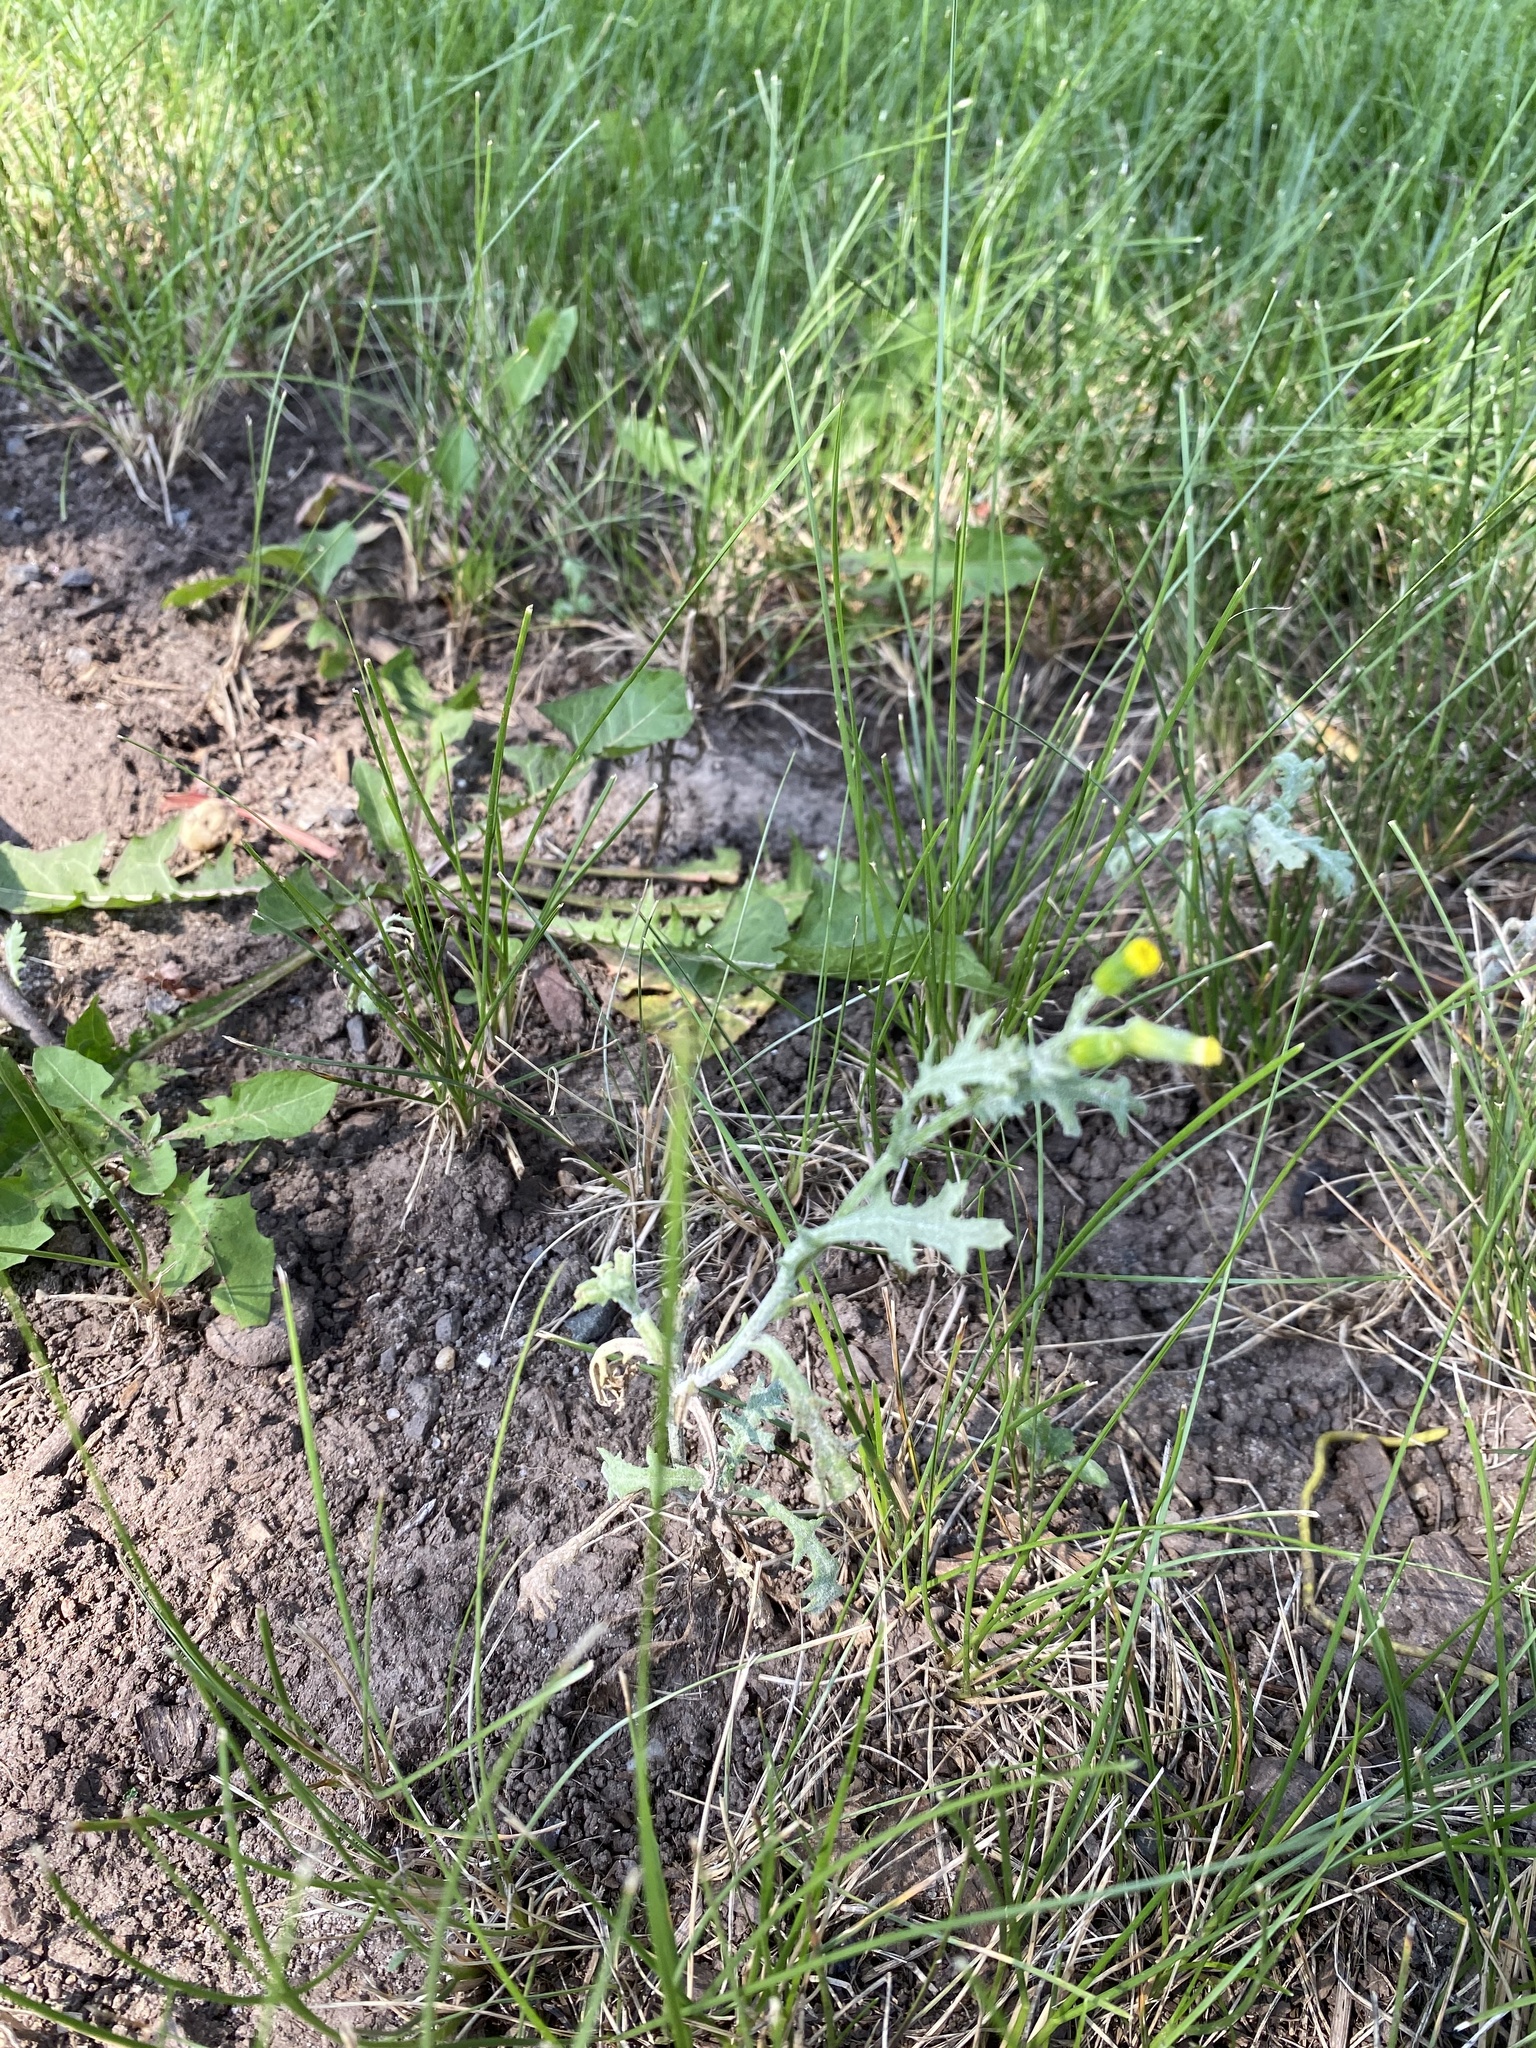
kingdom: Plantae
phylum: Tracheophyta
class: Magnoliopsida
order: Asterales
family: Asteraceae
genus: Senecio
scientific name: Senecio vulgaris
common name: Old-man-in-the-spring
